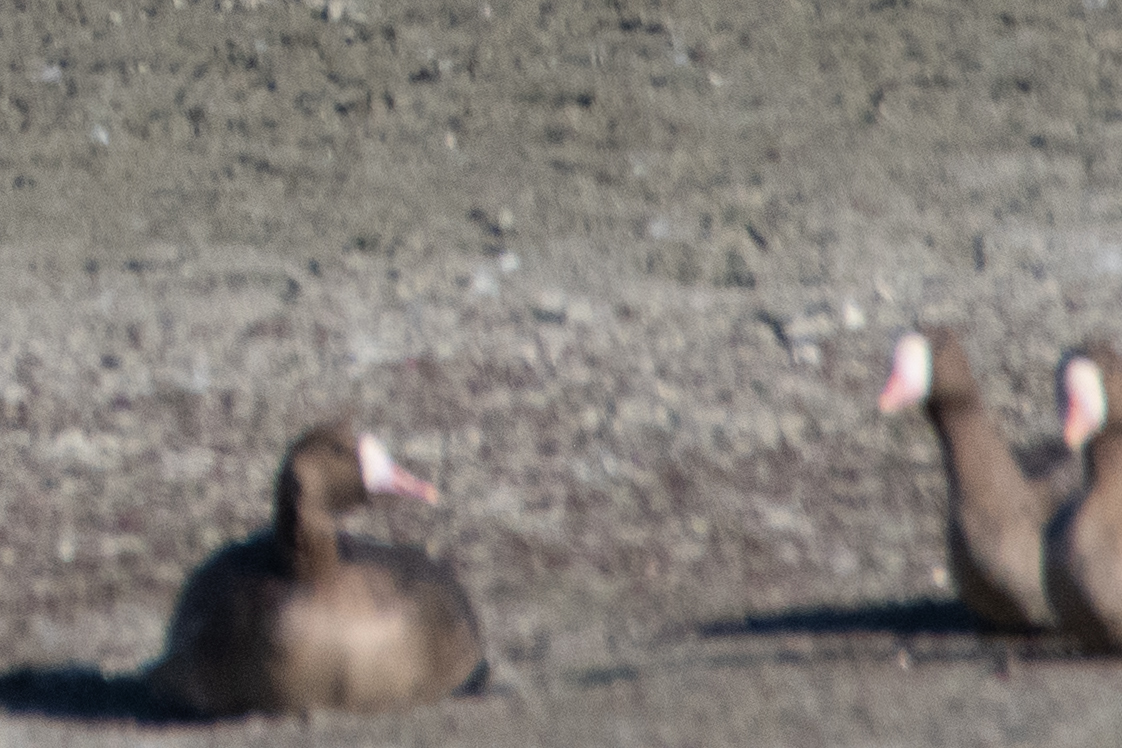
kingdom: Animalia
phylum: Chordata
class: Aves
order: Anseriformes
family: Anatidae
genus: Anser
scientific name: Anser albifrons
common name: Greater white-fronted goose
